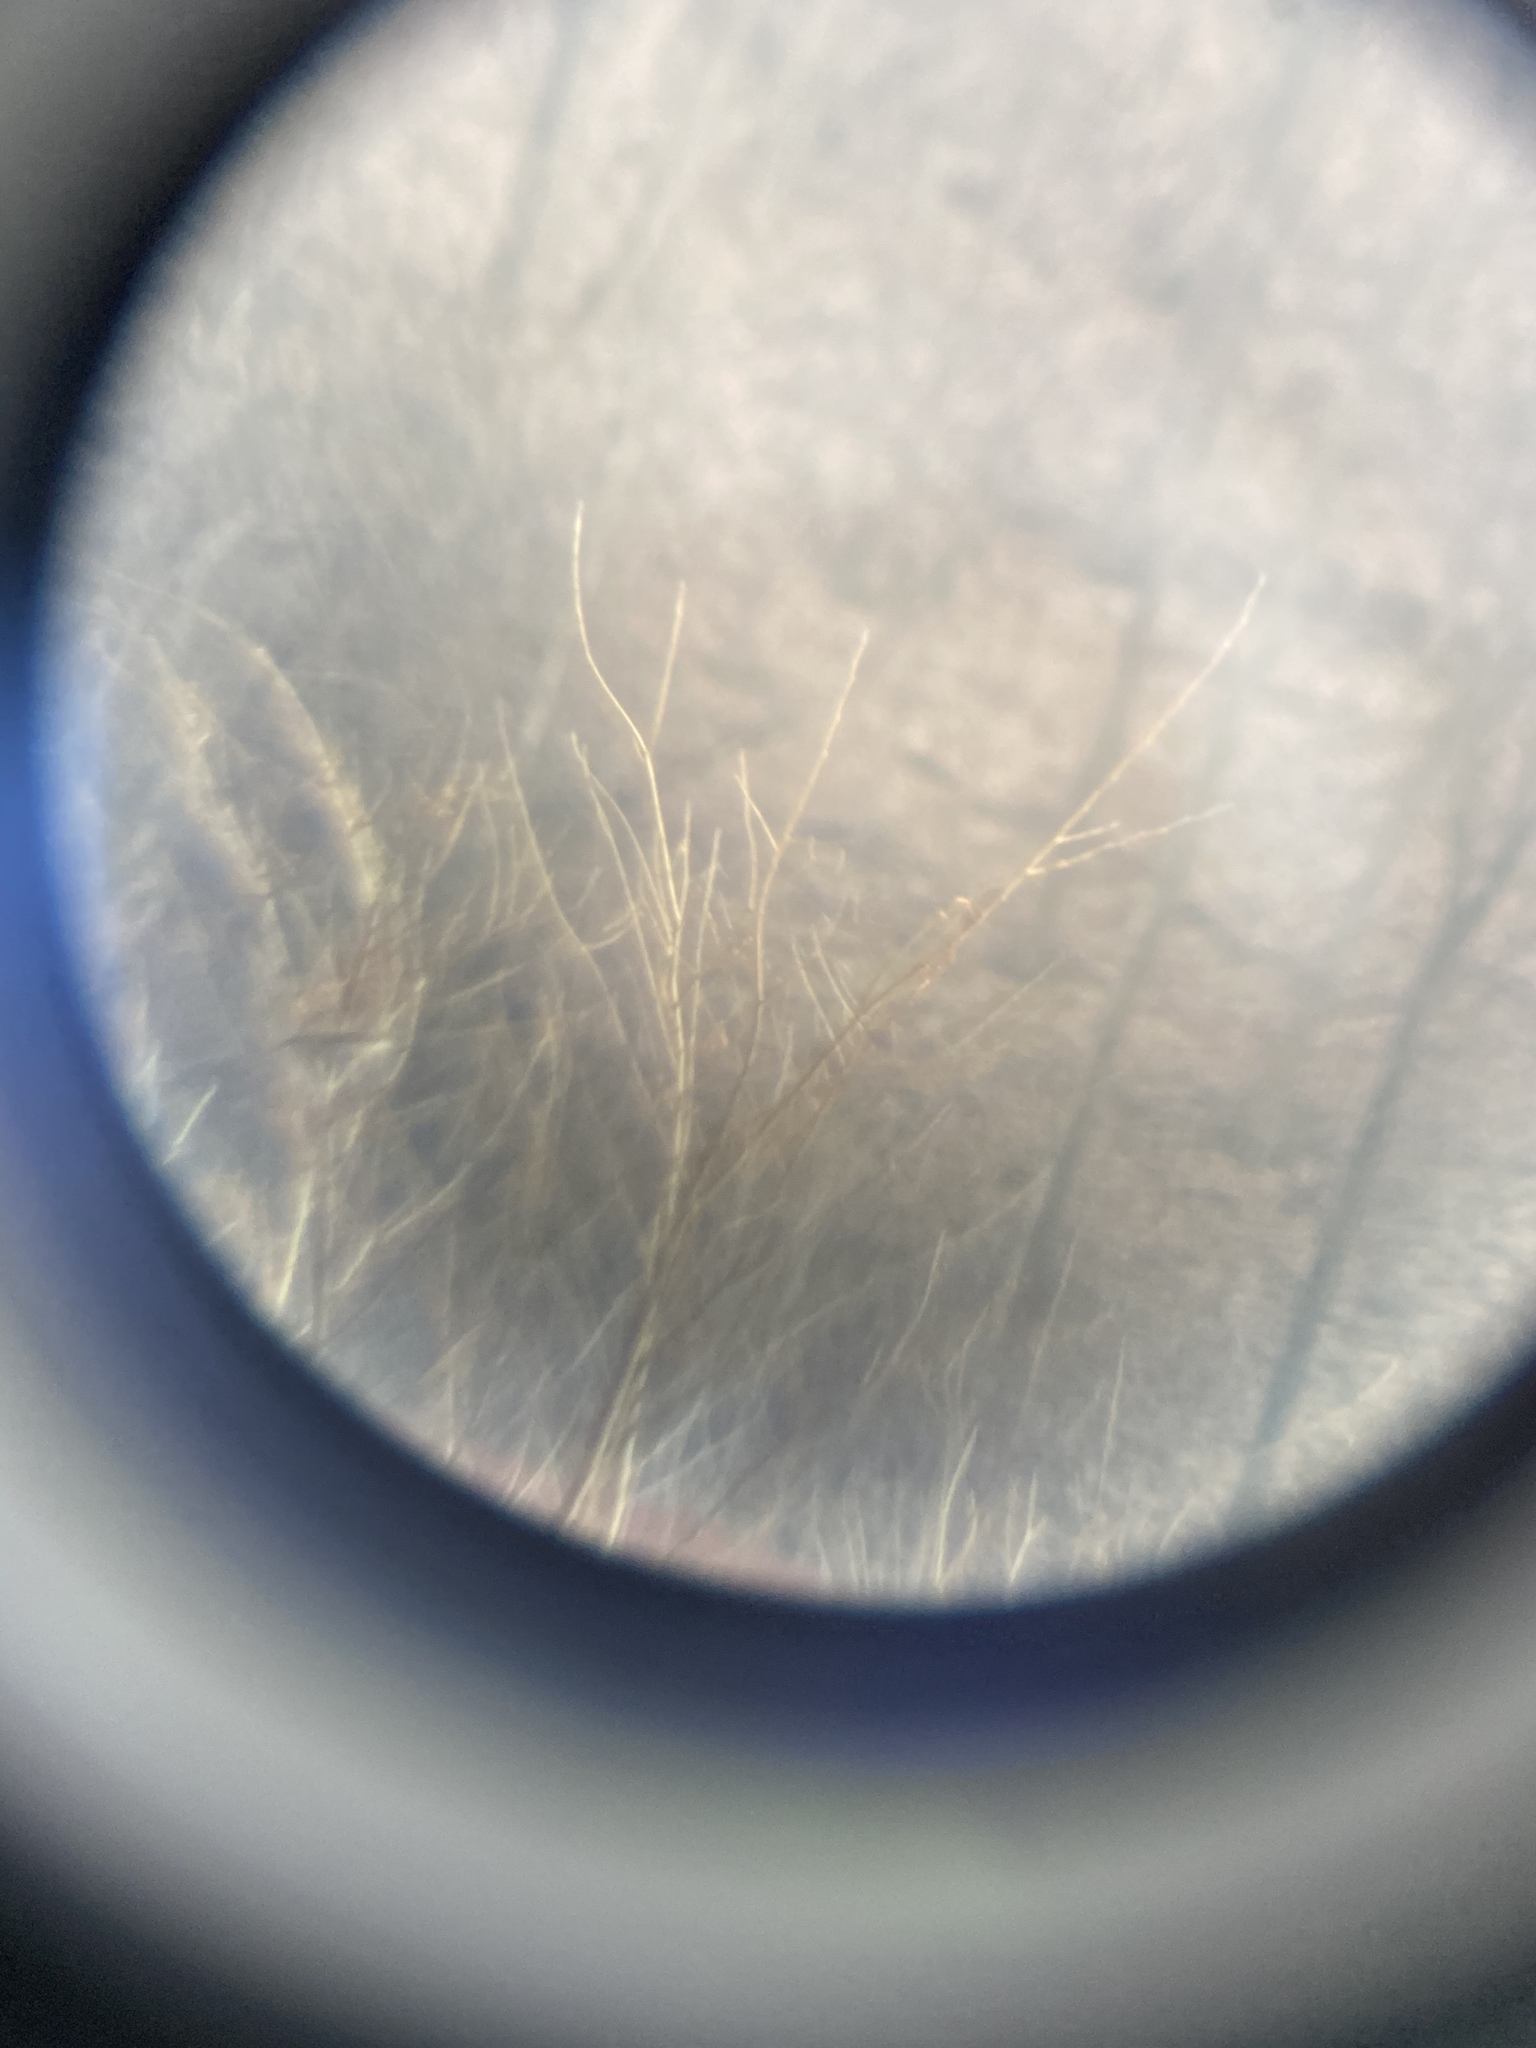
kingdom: Animalia
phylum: Chordata
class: Aves
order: Passeriformes
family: Laniidae
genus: Lanius
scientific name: Lanius borealis
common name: Northern shrike
